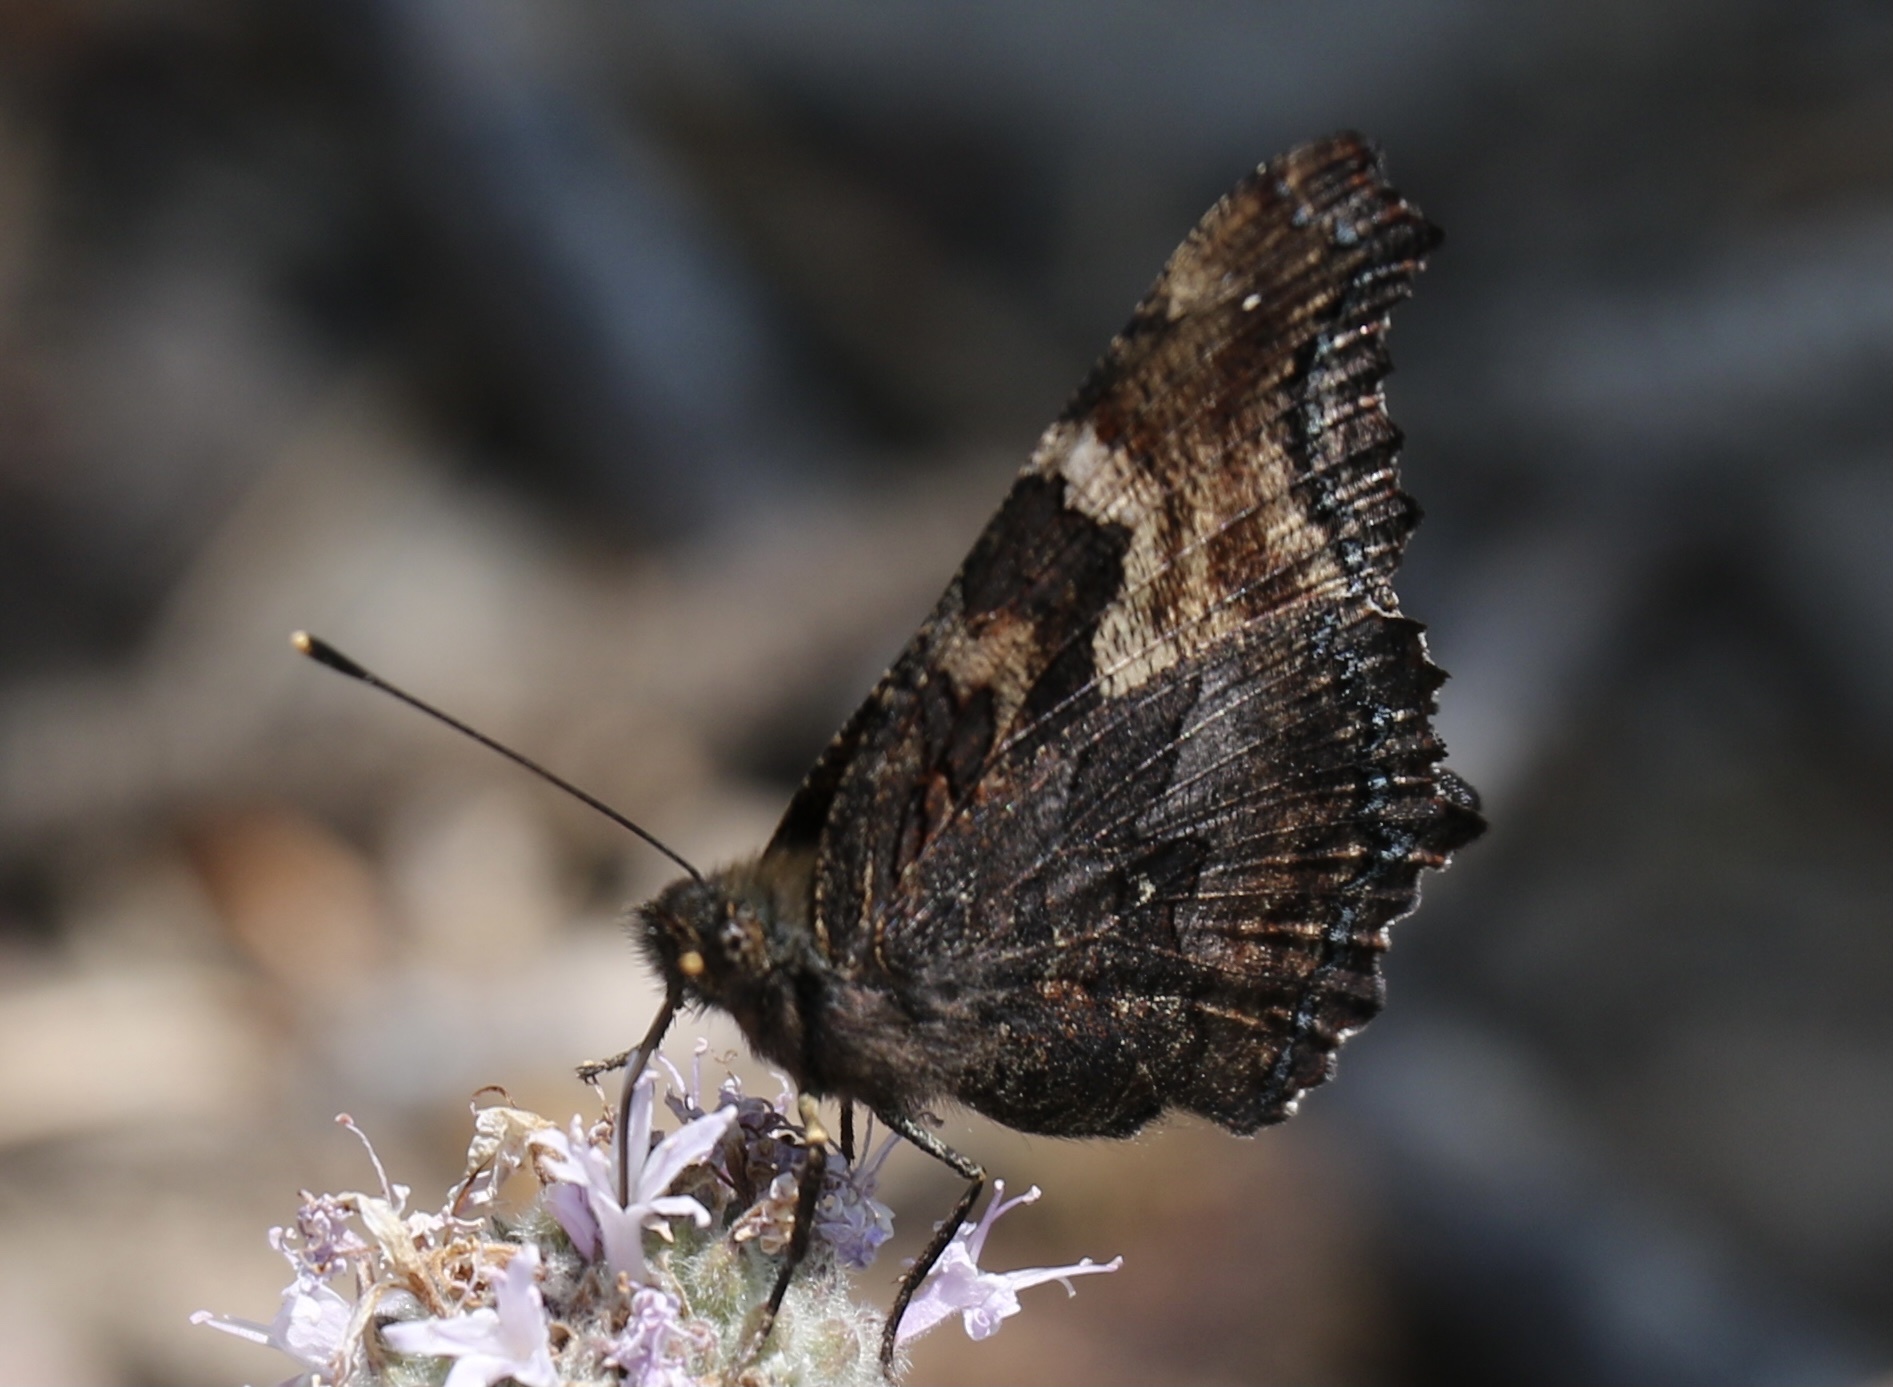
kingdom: Animalia
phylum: Arthropoda
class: Insecta
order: Lepidoptera
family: Nymphalidae
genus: Nymphalis
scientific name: Nymphalis californica
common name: California tortoiseshell
